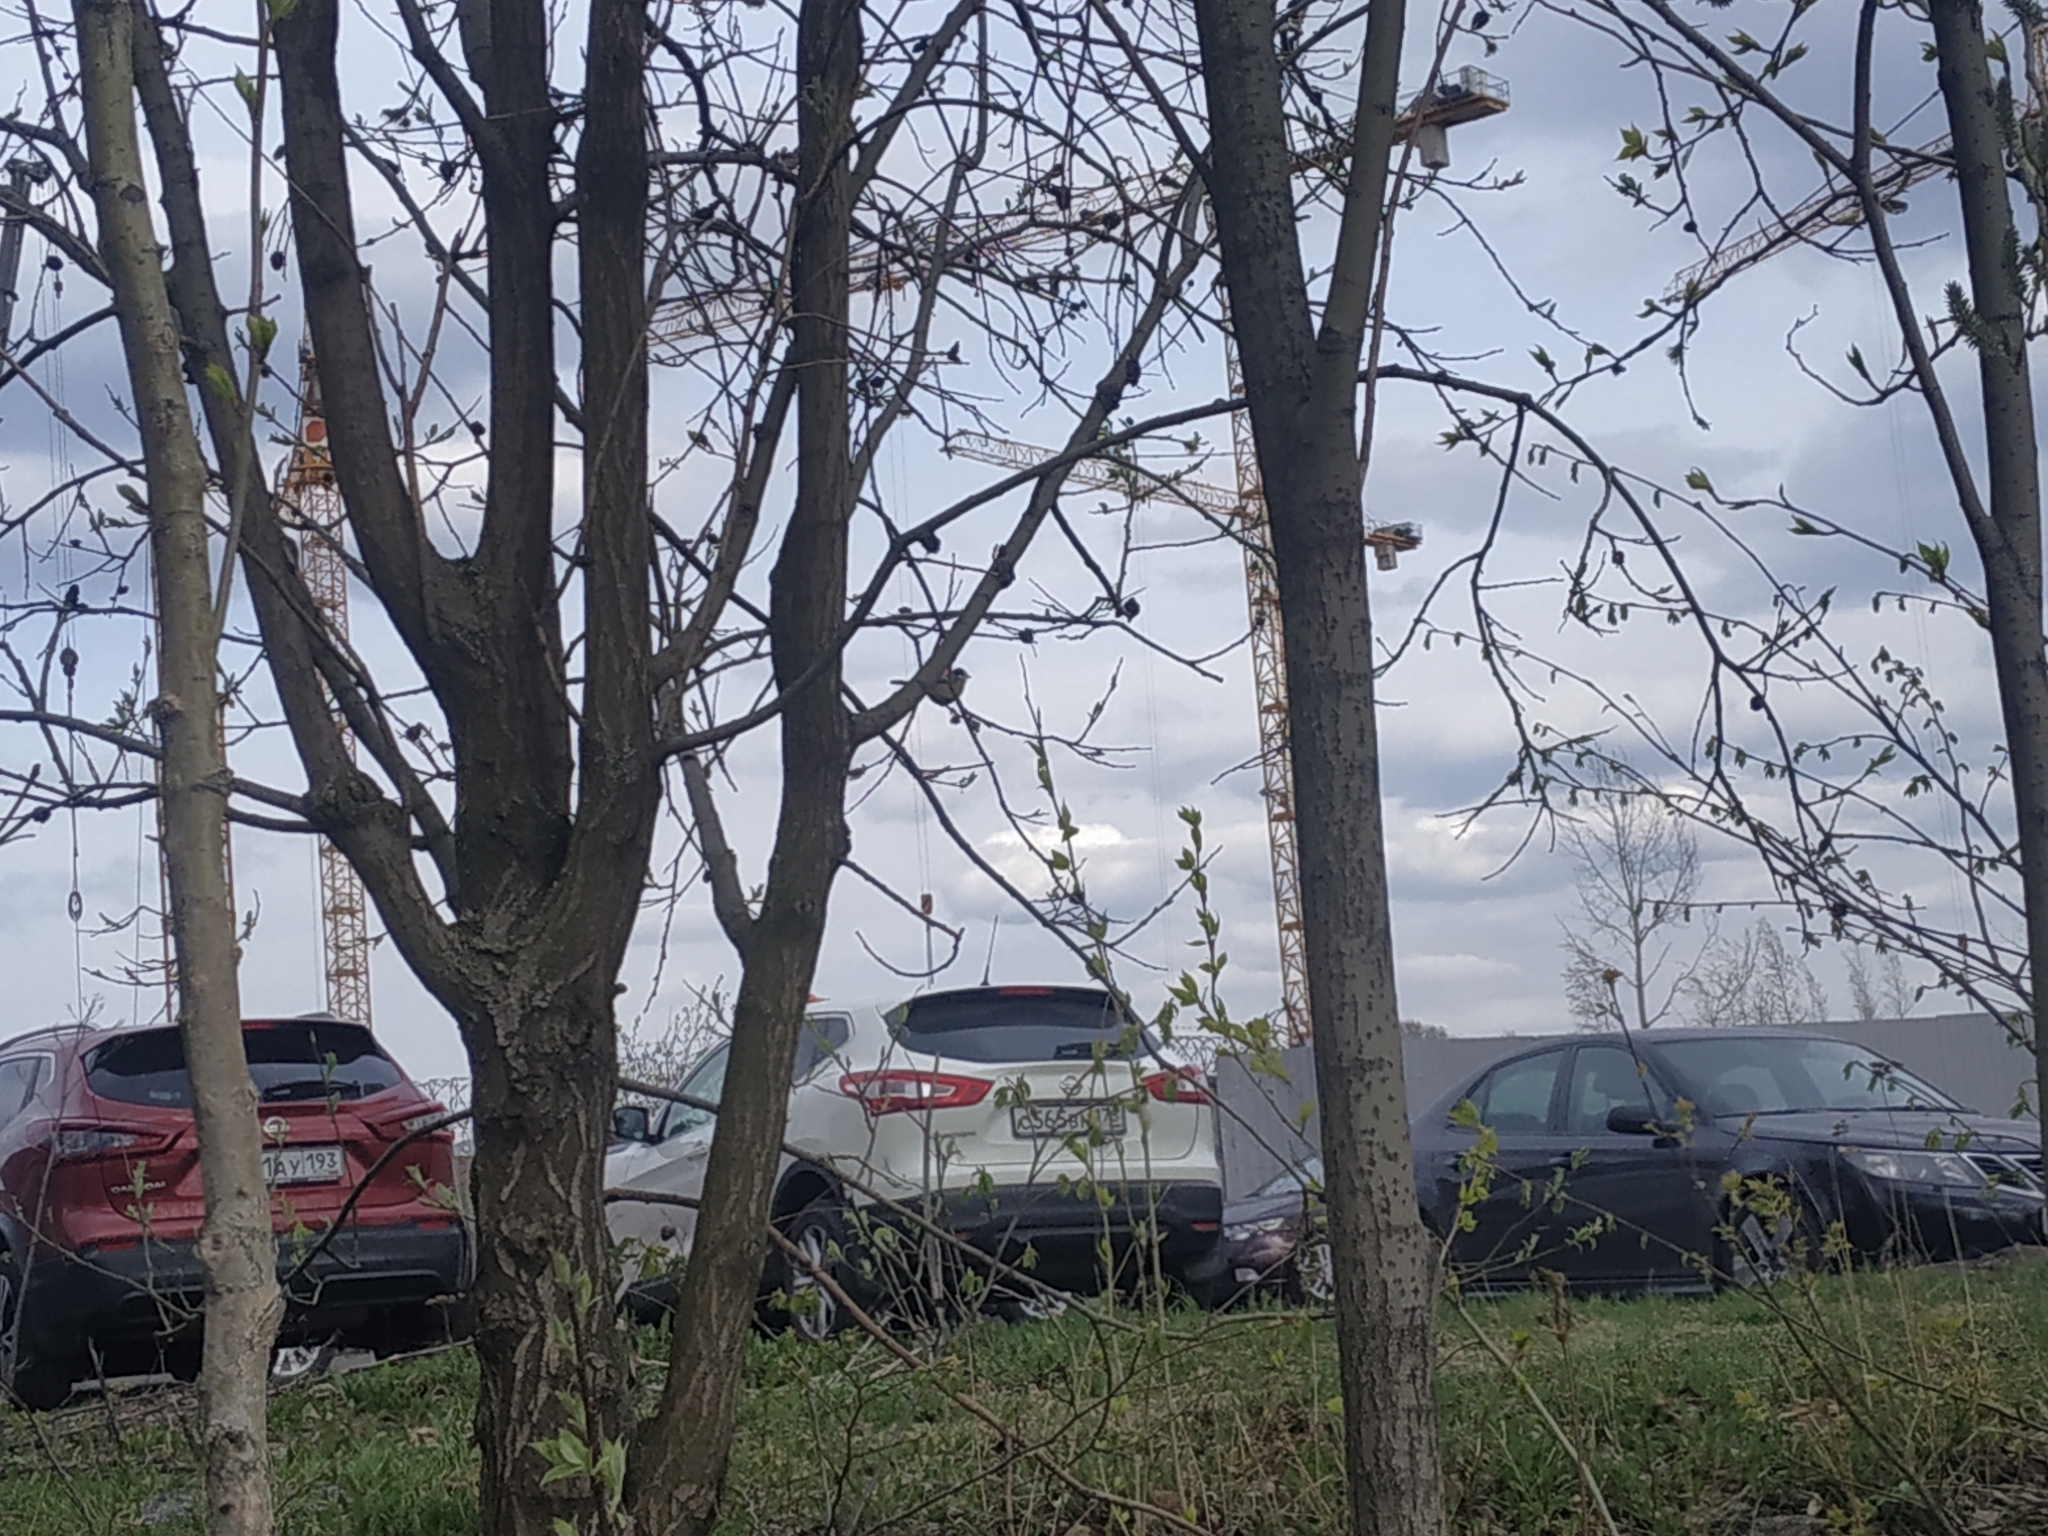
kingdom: Animalia
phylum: Chordata
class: Aves
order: Passeriformes
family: Paridae
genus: Parus
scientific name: Parus major
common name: Great tit
